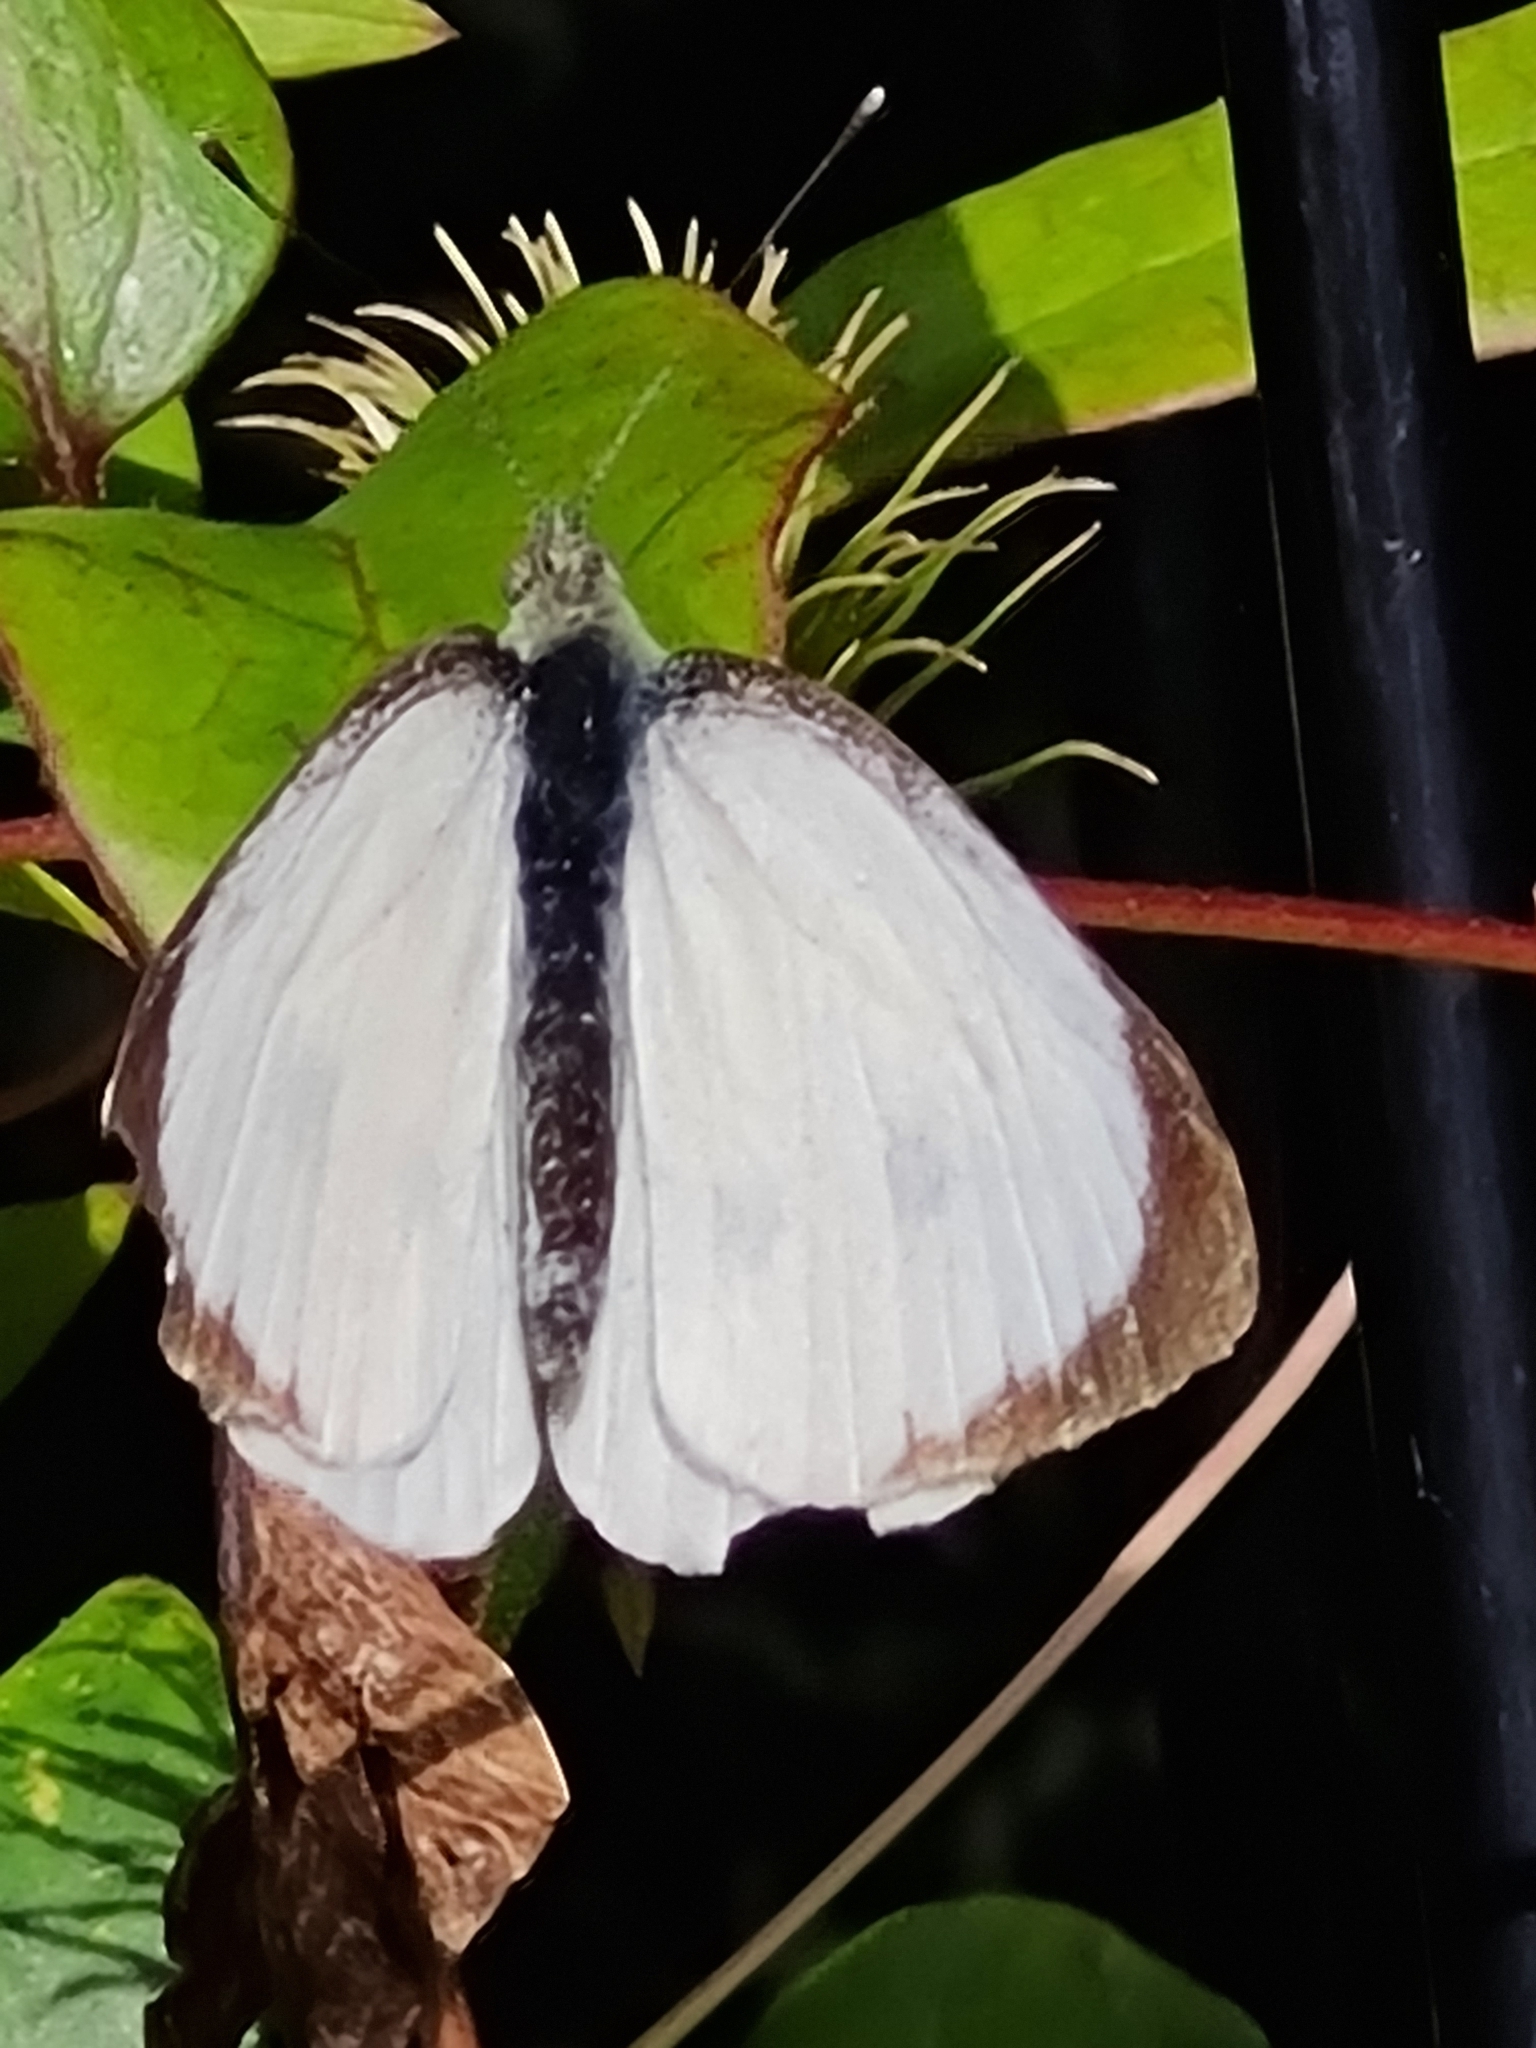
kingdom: Animalia
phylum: Arthropoda
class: Insecta
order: Lepidoptera
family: Pieridae
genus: Pieris
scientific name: Pieris brassicae
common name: Large white
